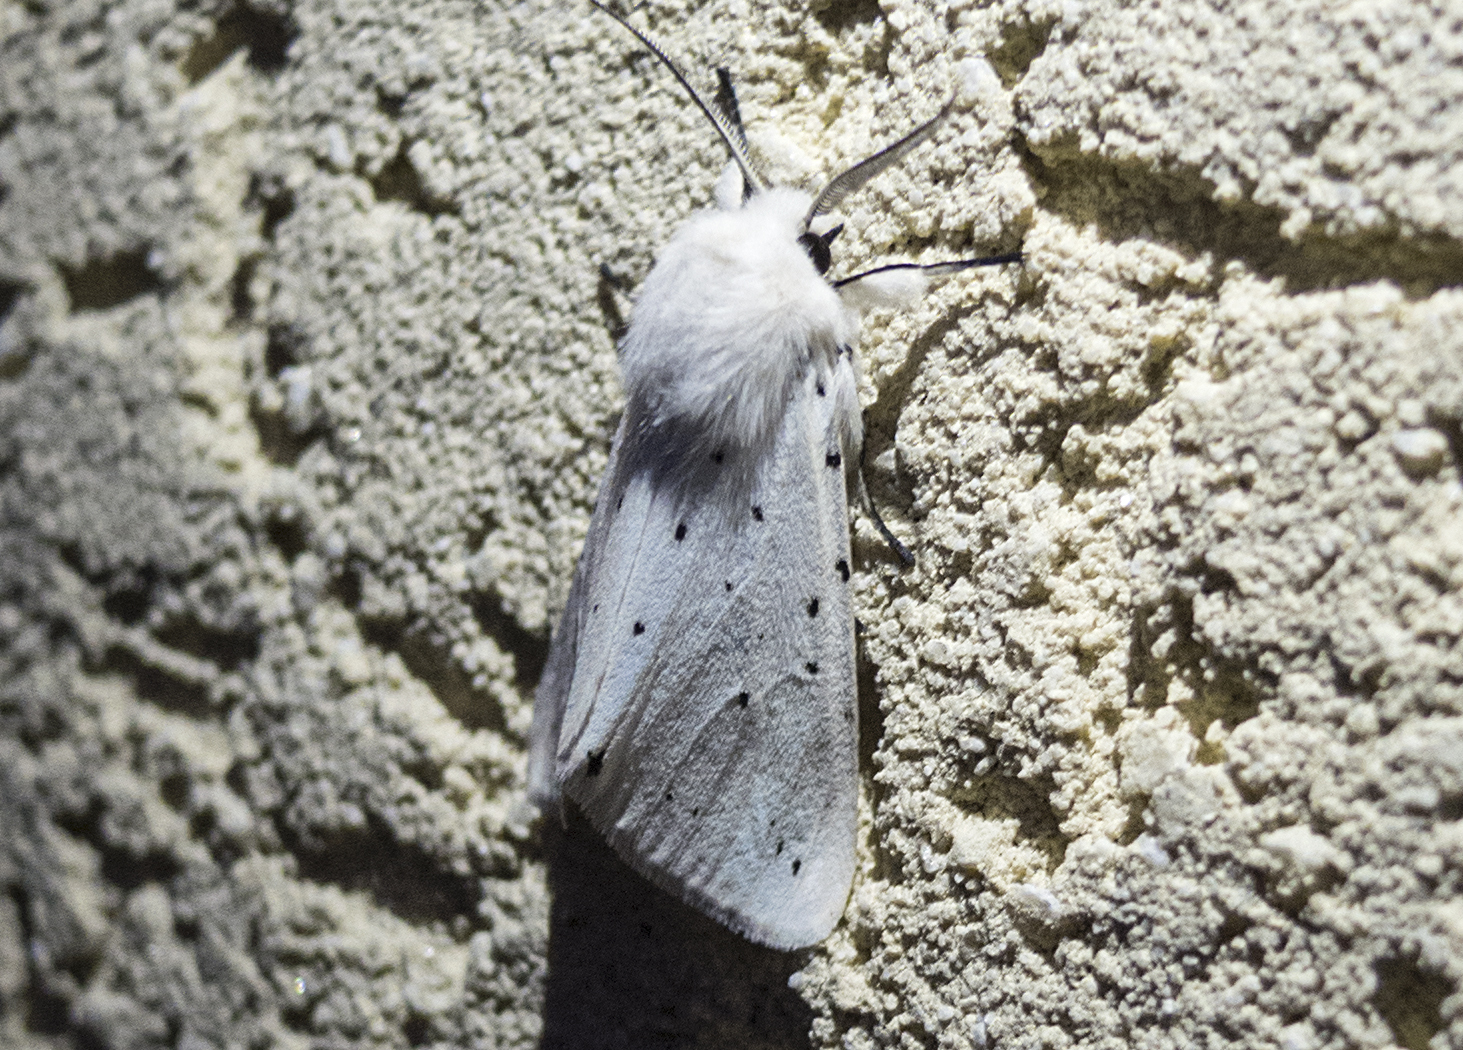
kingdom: Animalia
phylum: Arthropoda
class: Insecta
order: Lepidoptera
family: Erebidae
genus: Spilosoma
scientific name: Spilosoma lubricipeda
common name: White ermine
